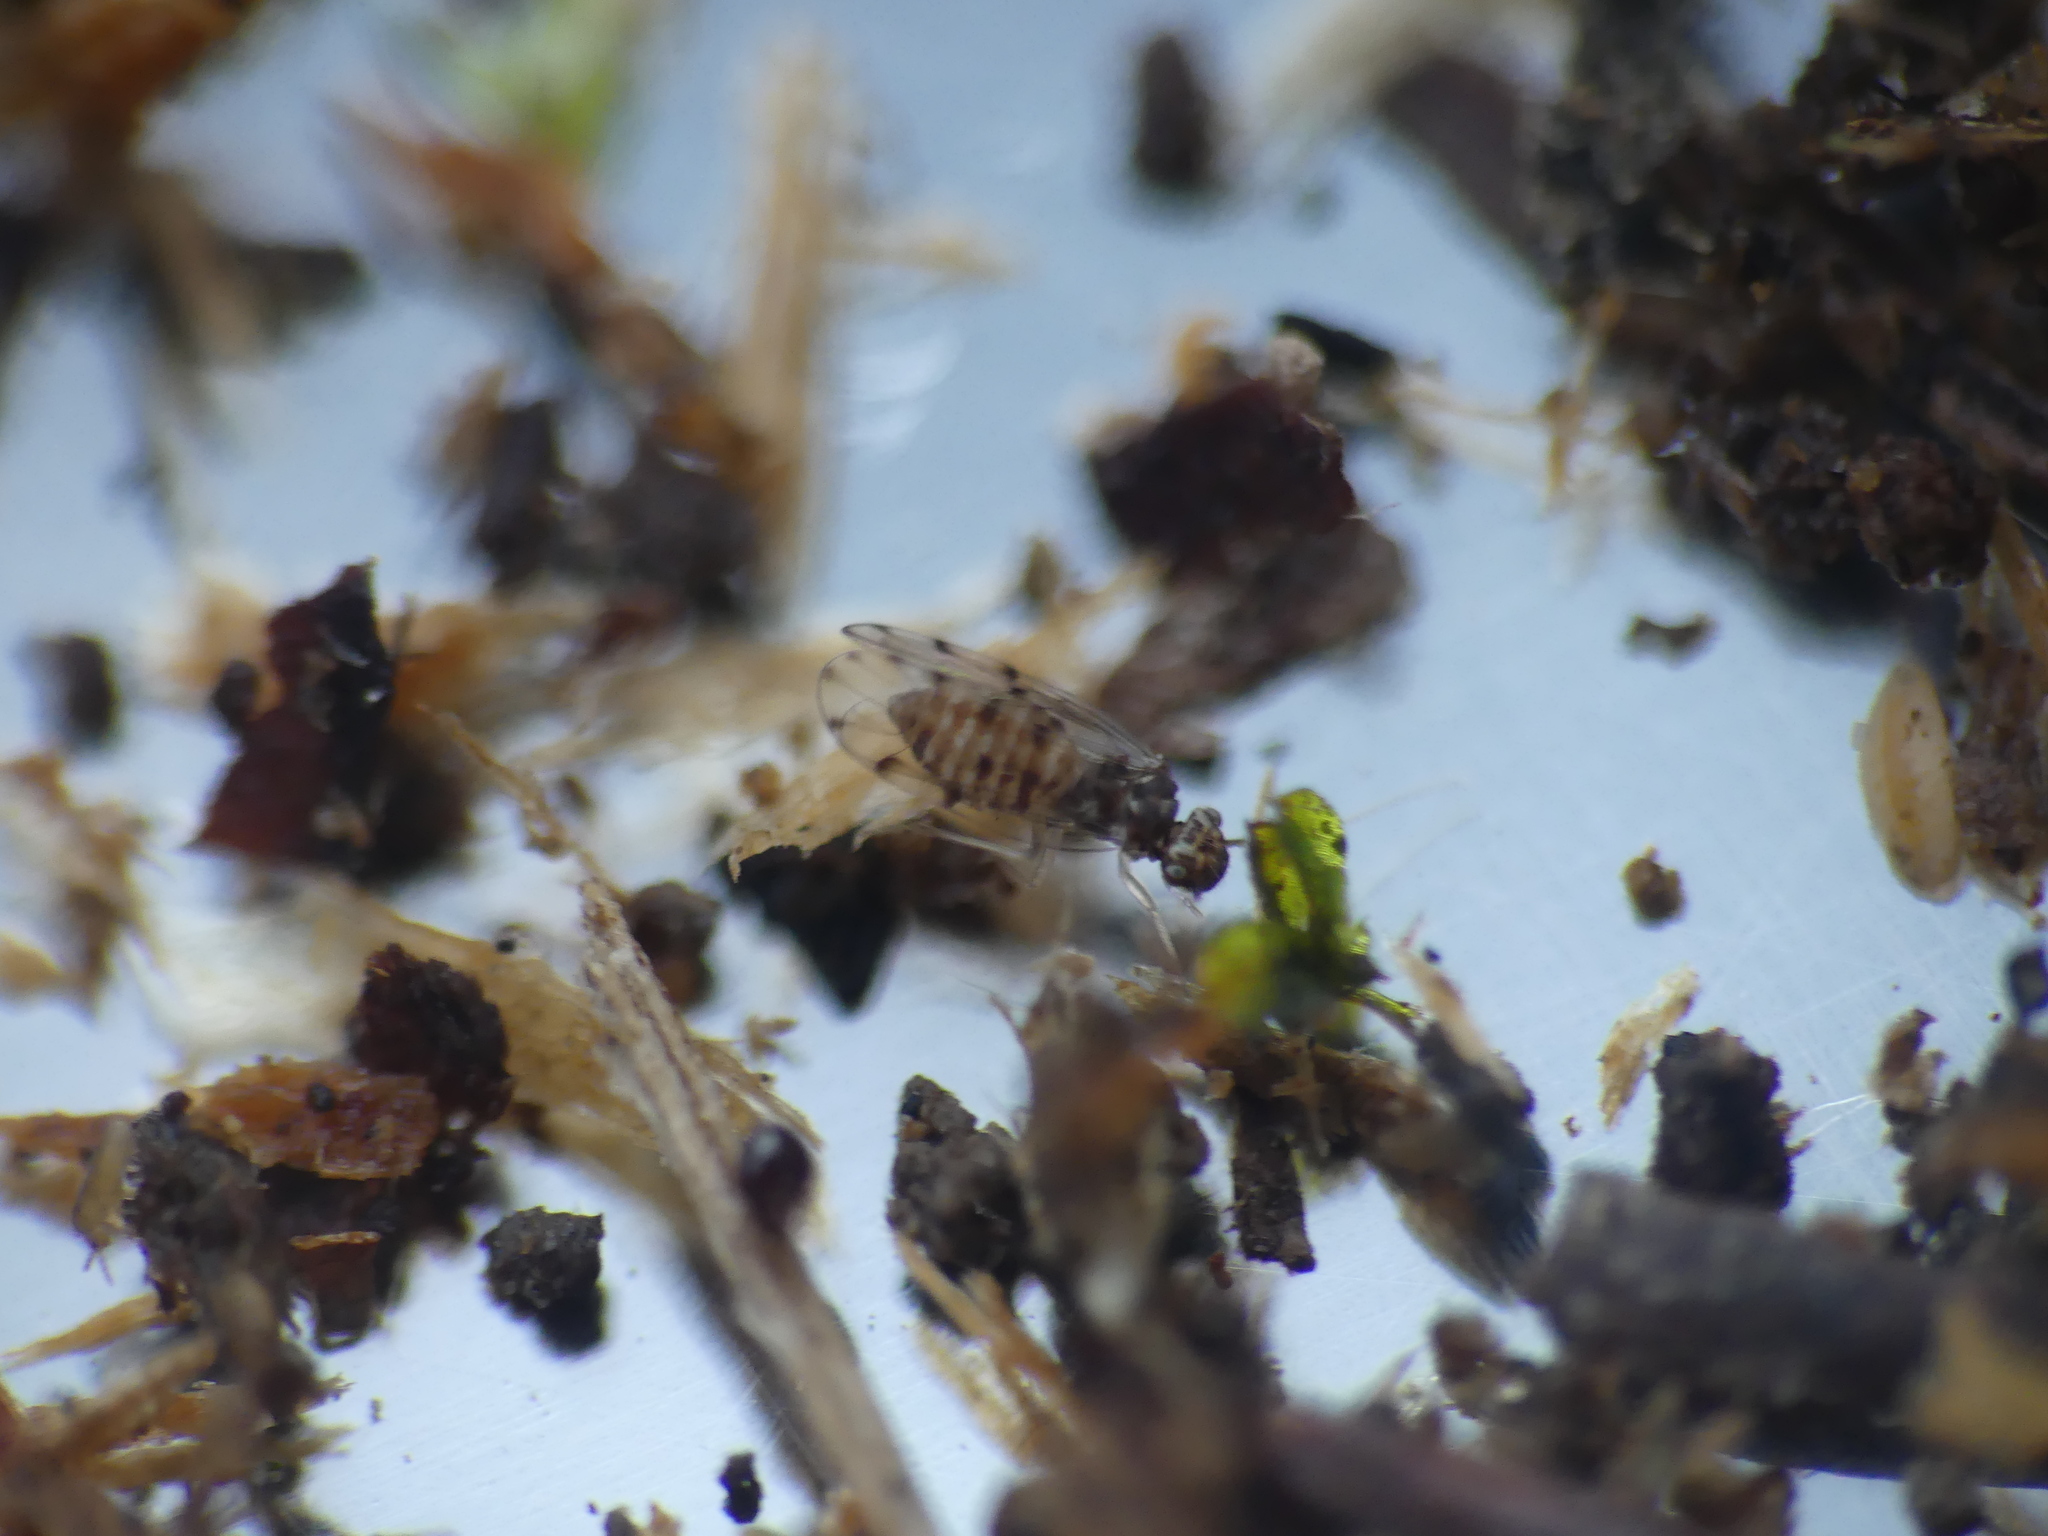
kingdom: Animalia
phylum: Arthropoda
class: Insecta
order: Psocodea
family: Ectopsocidae
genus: Ectopsocus
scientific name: Ectopsocus petersi
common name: Medium-sized bark louse
